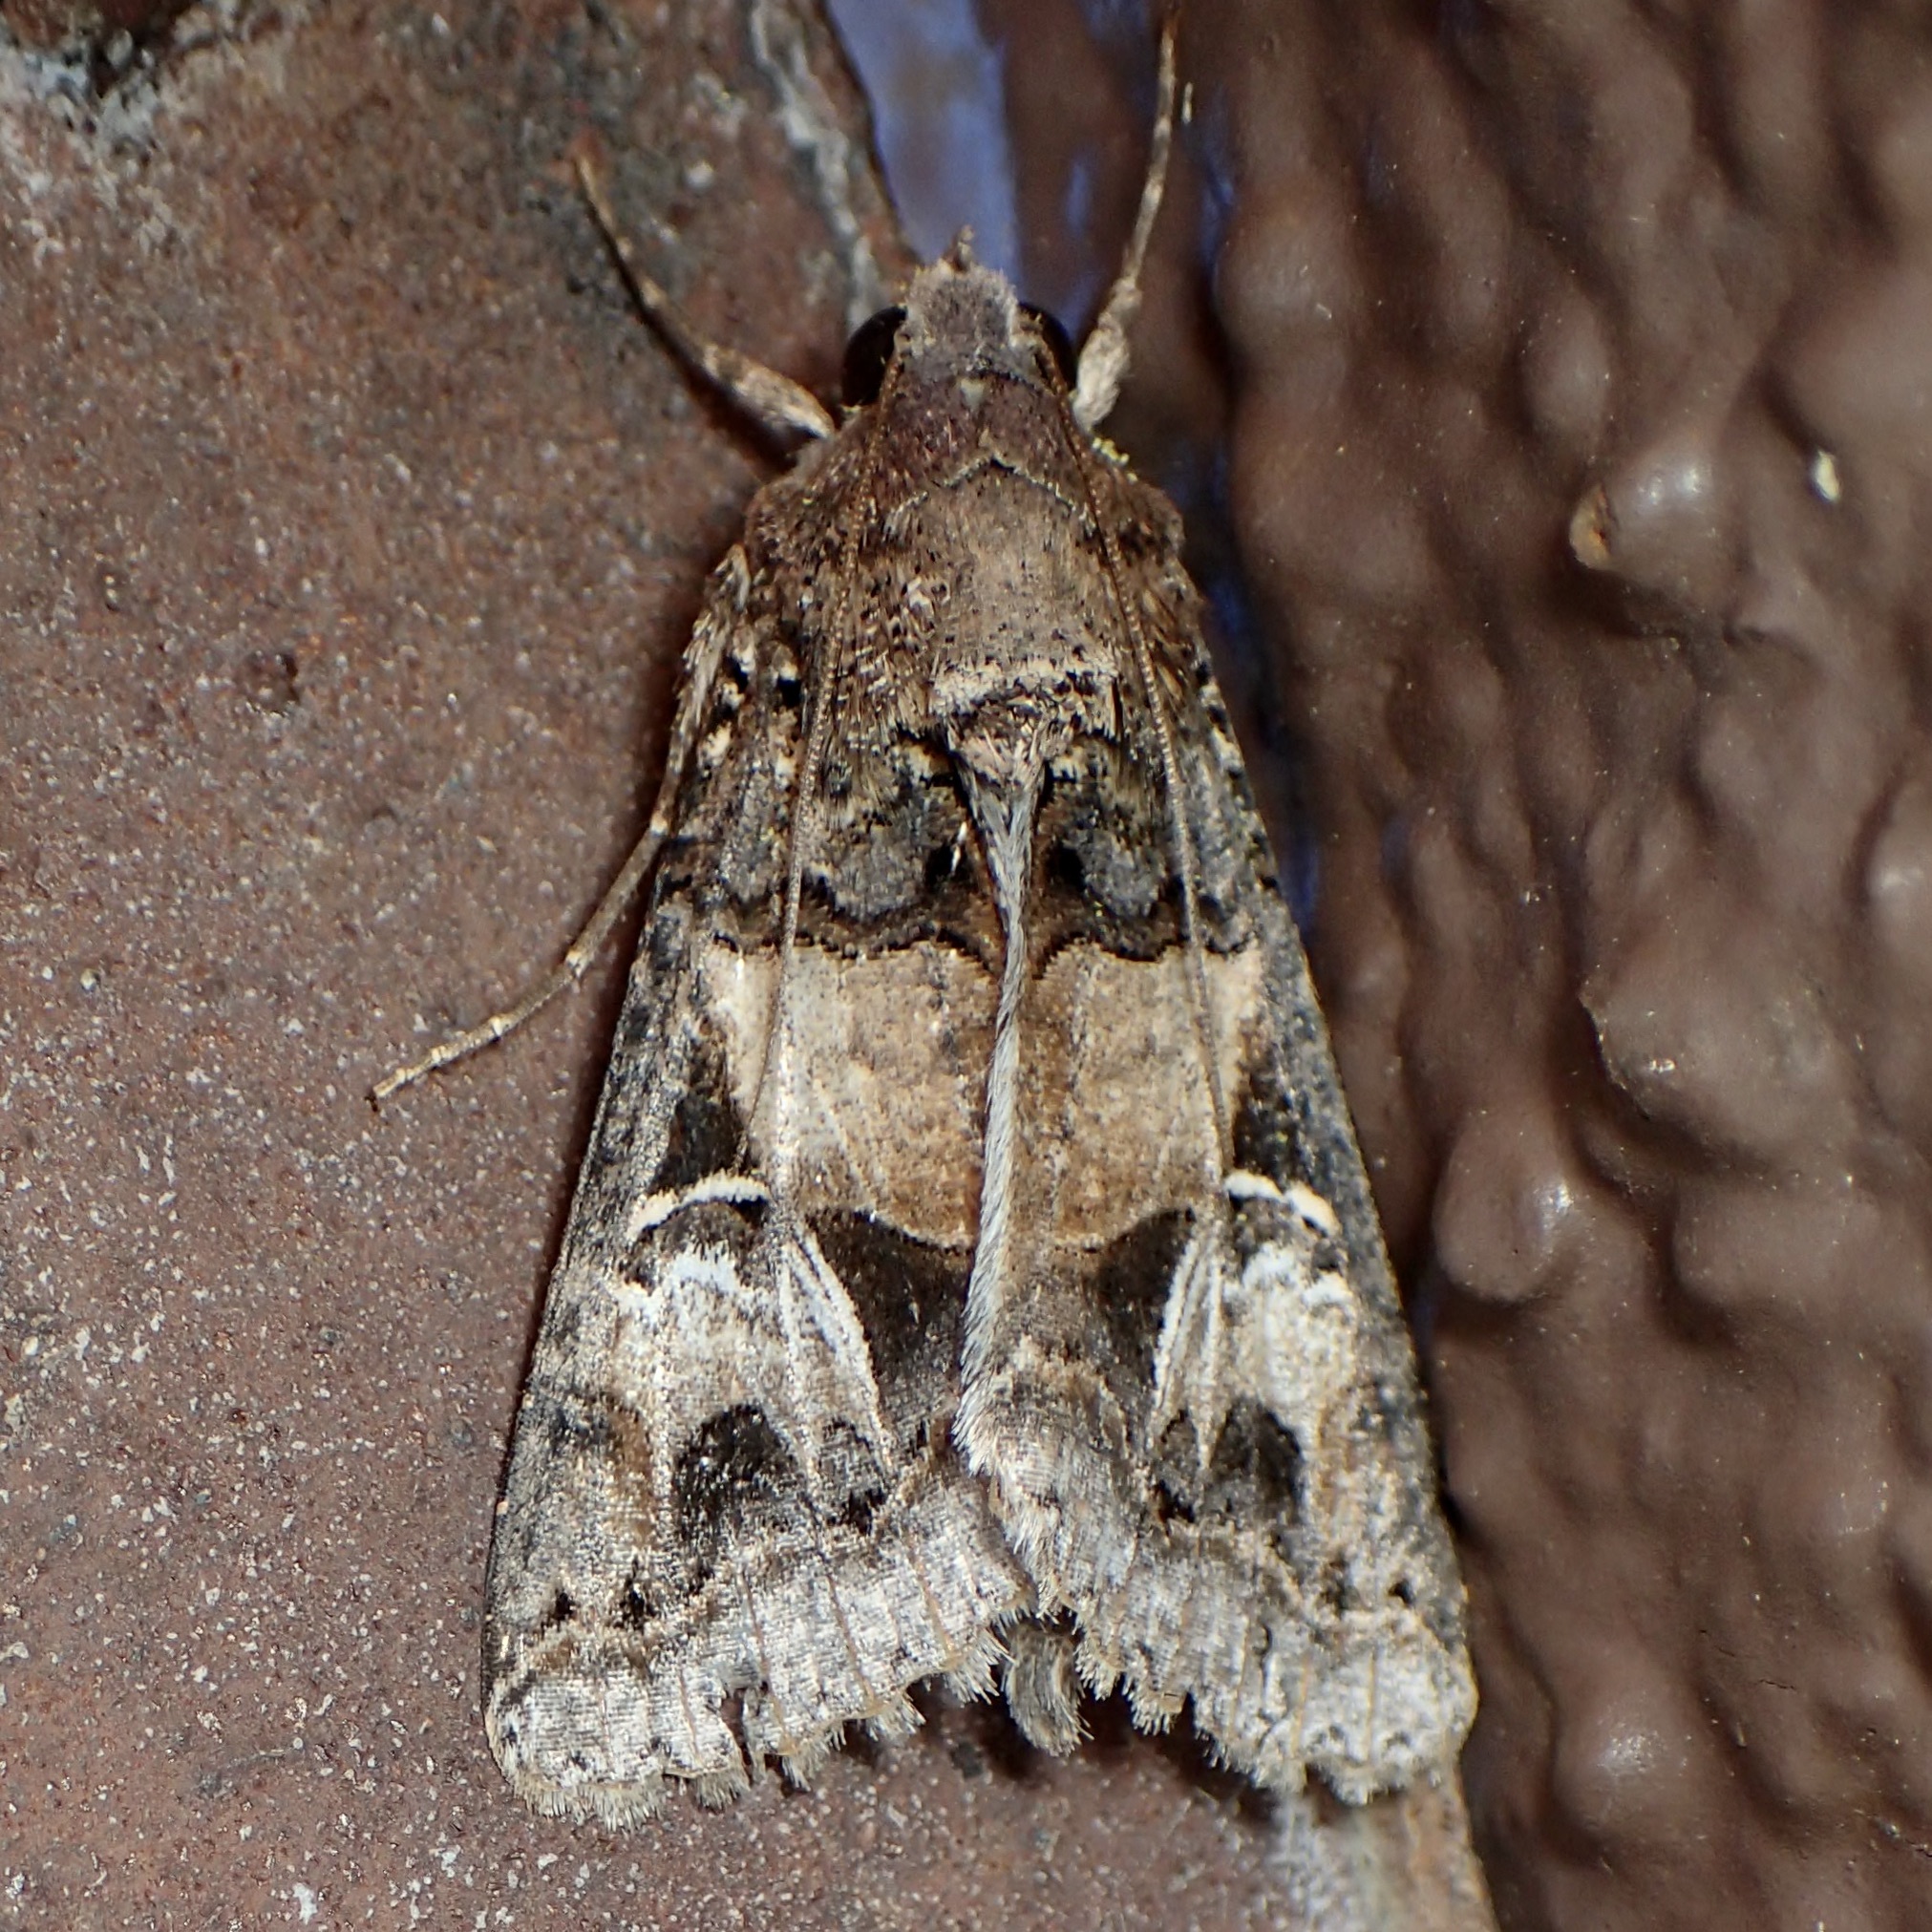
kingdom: Animalia
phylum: Arthropoda
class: Insecta
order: Lepidoptera
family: Erebidae
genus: Melipotis
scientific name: Melipotis novanda
